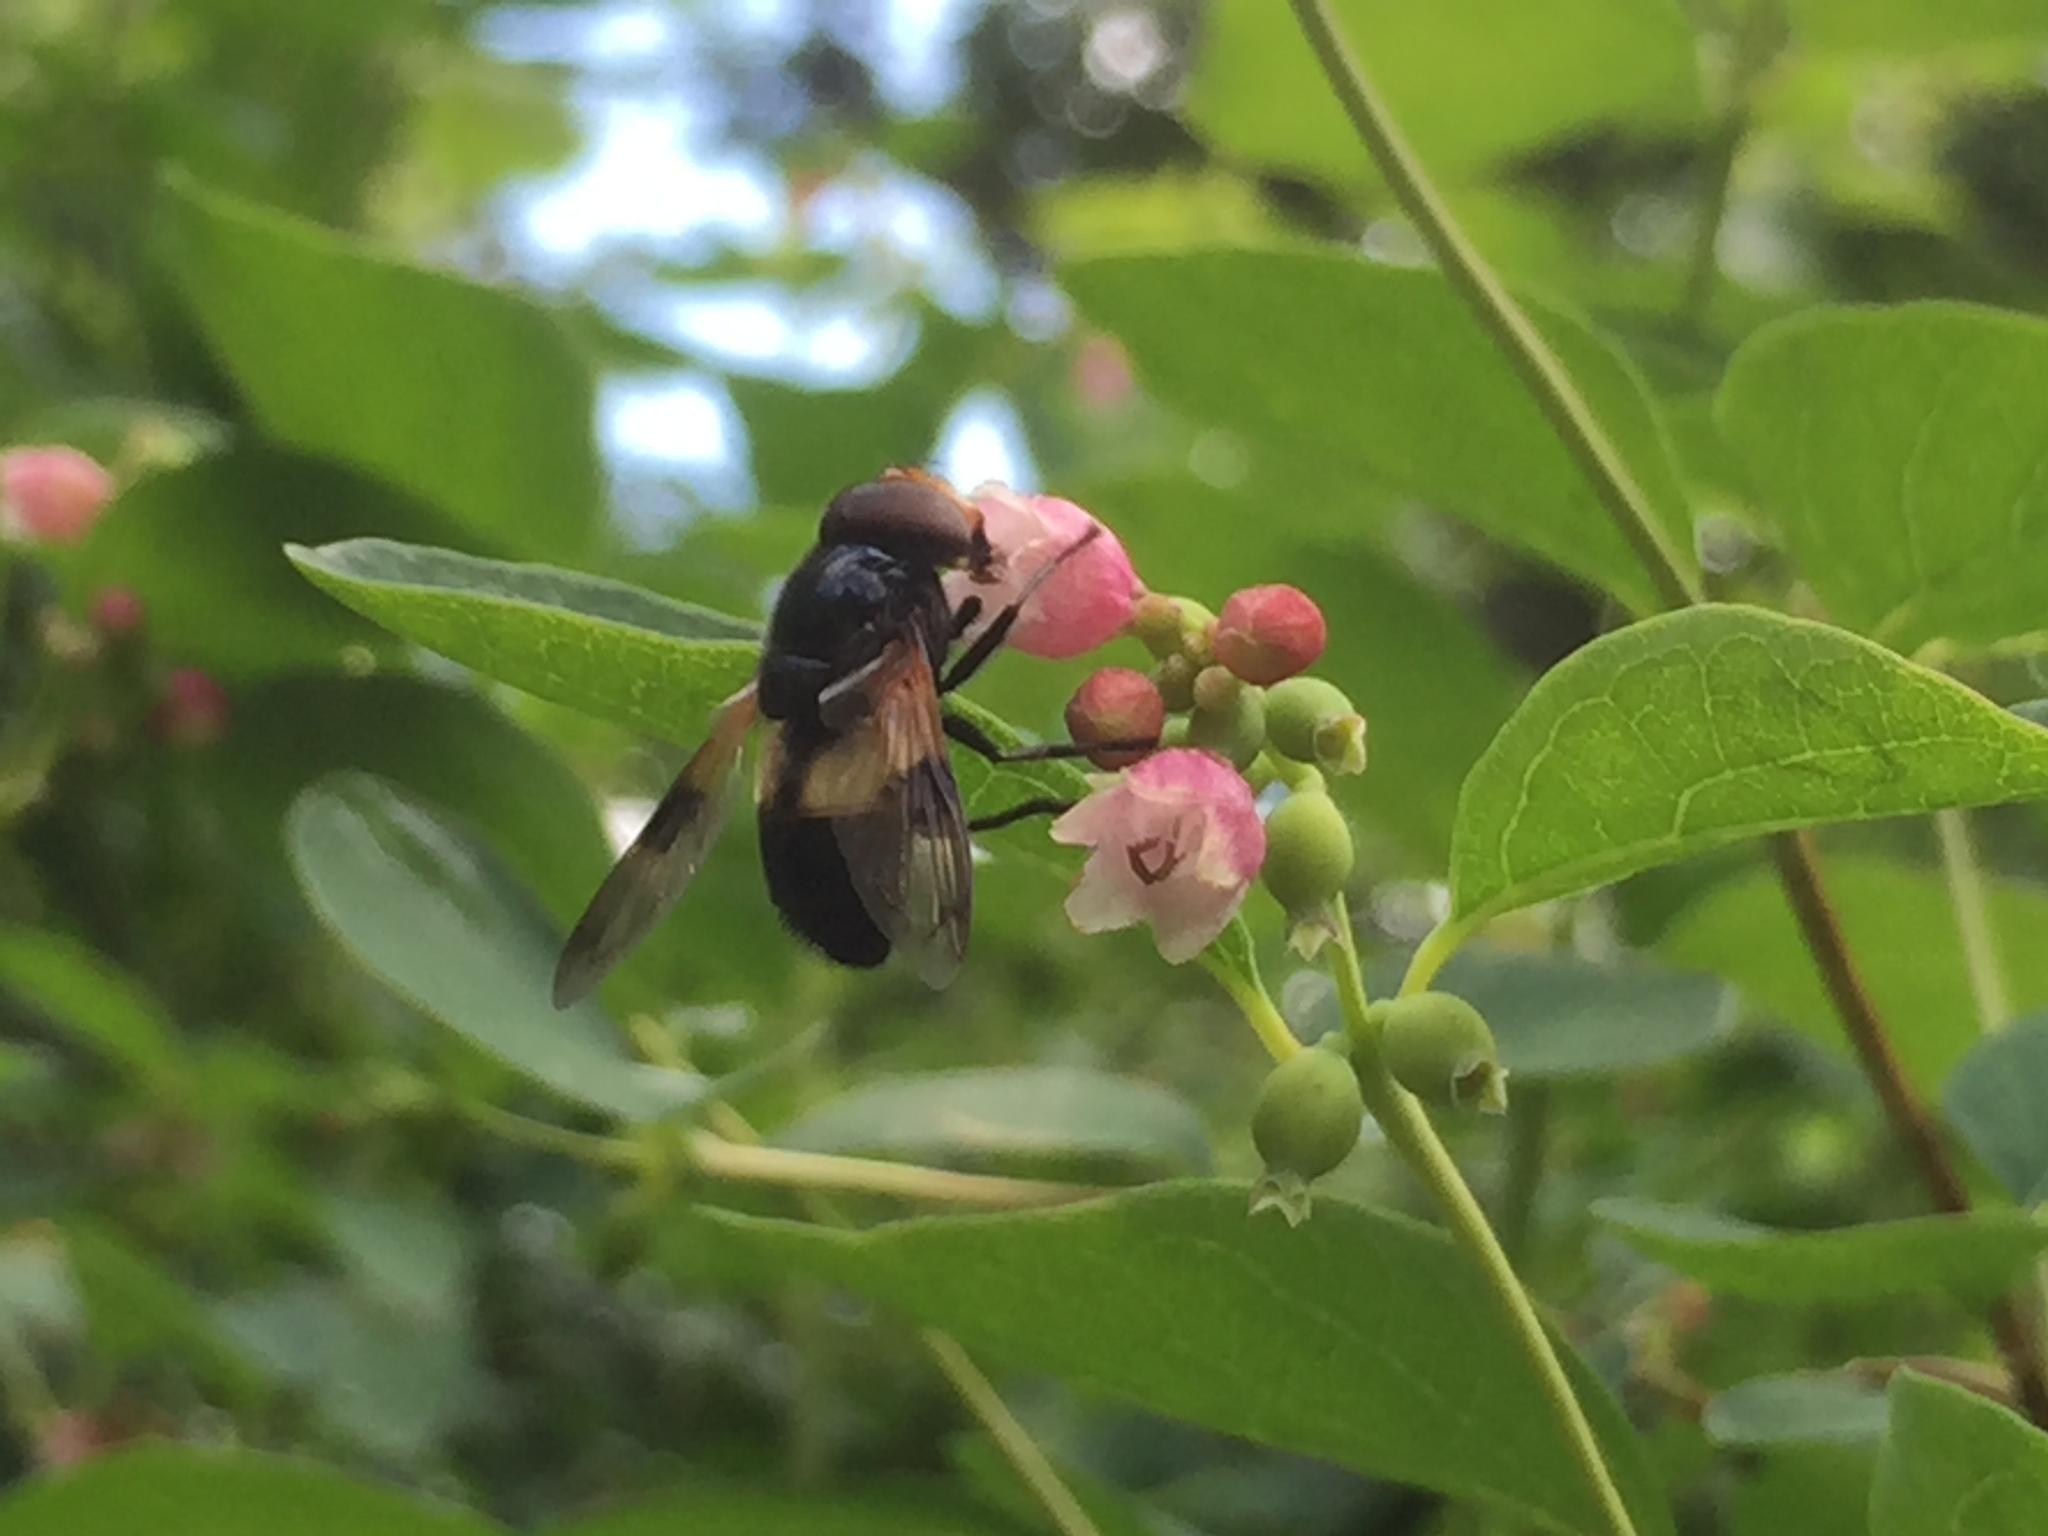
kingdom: Animalia
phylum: Arthropoda
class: Insecta
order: Diptera
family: Syrphidae
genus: Volucella
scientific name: Volucella pellucens
